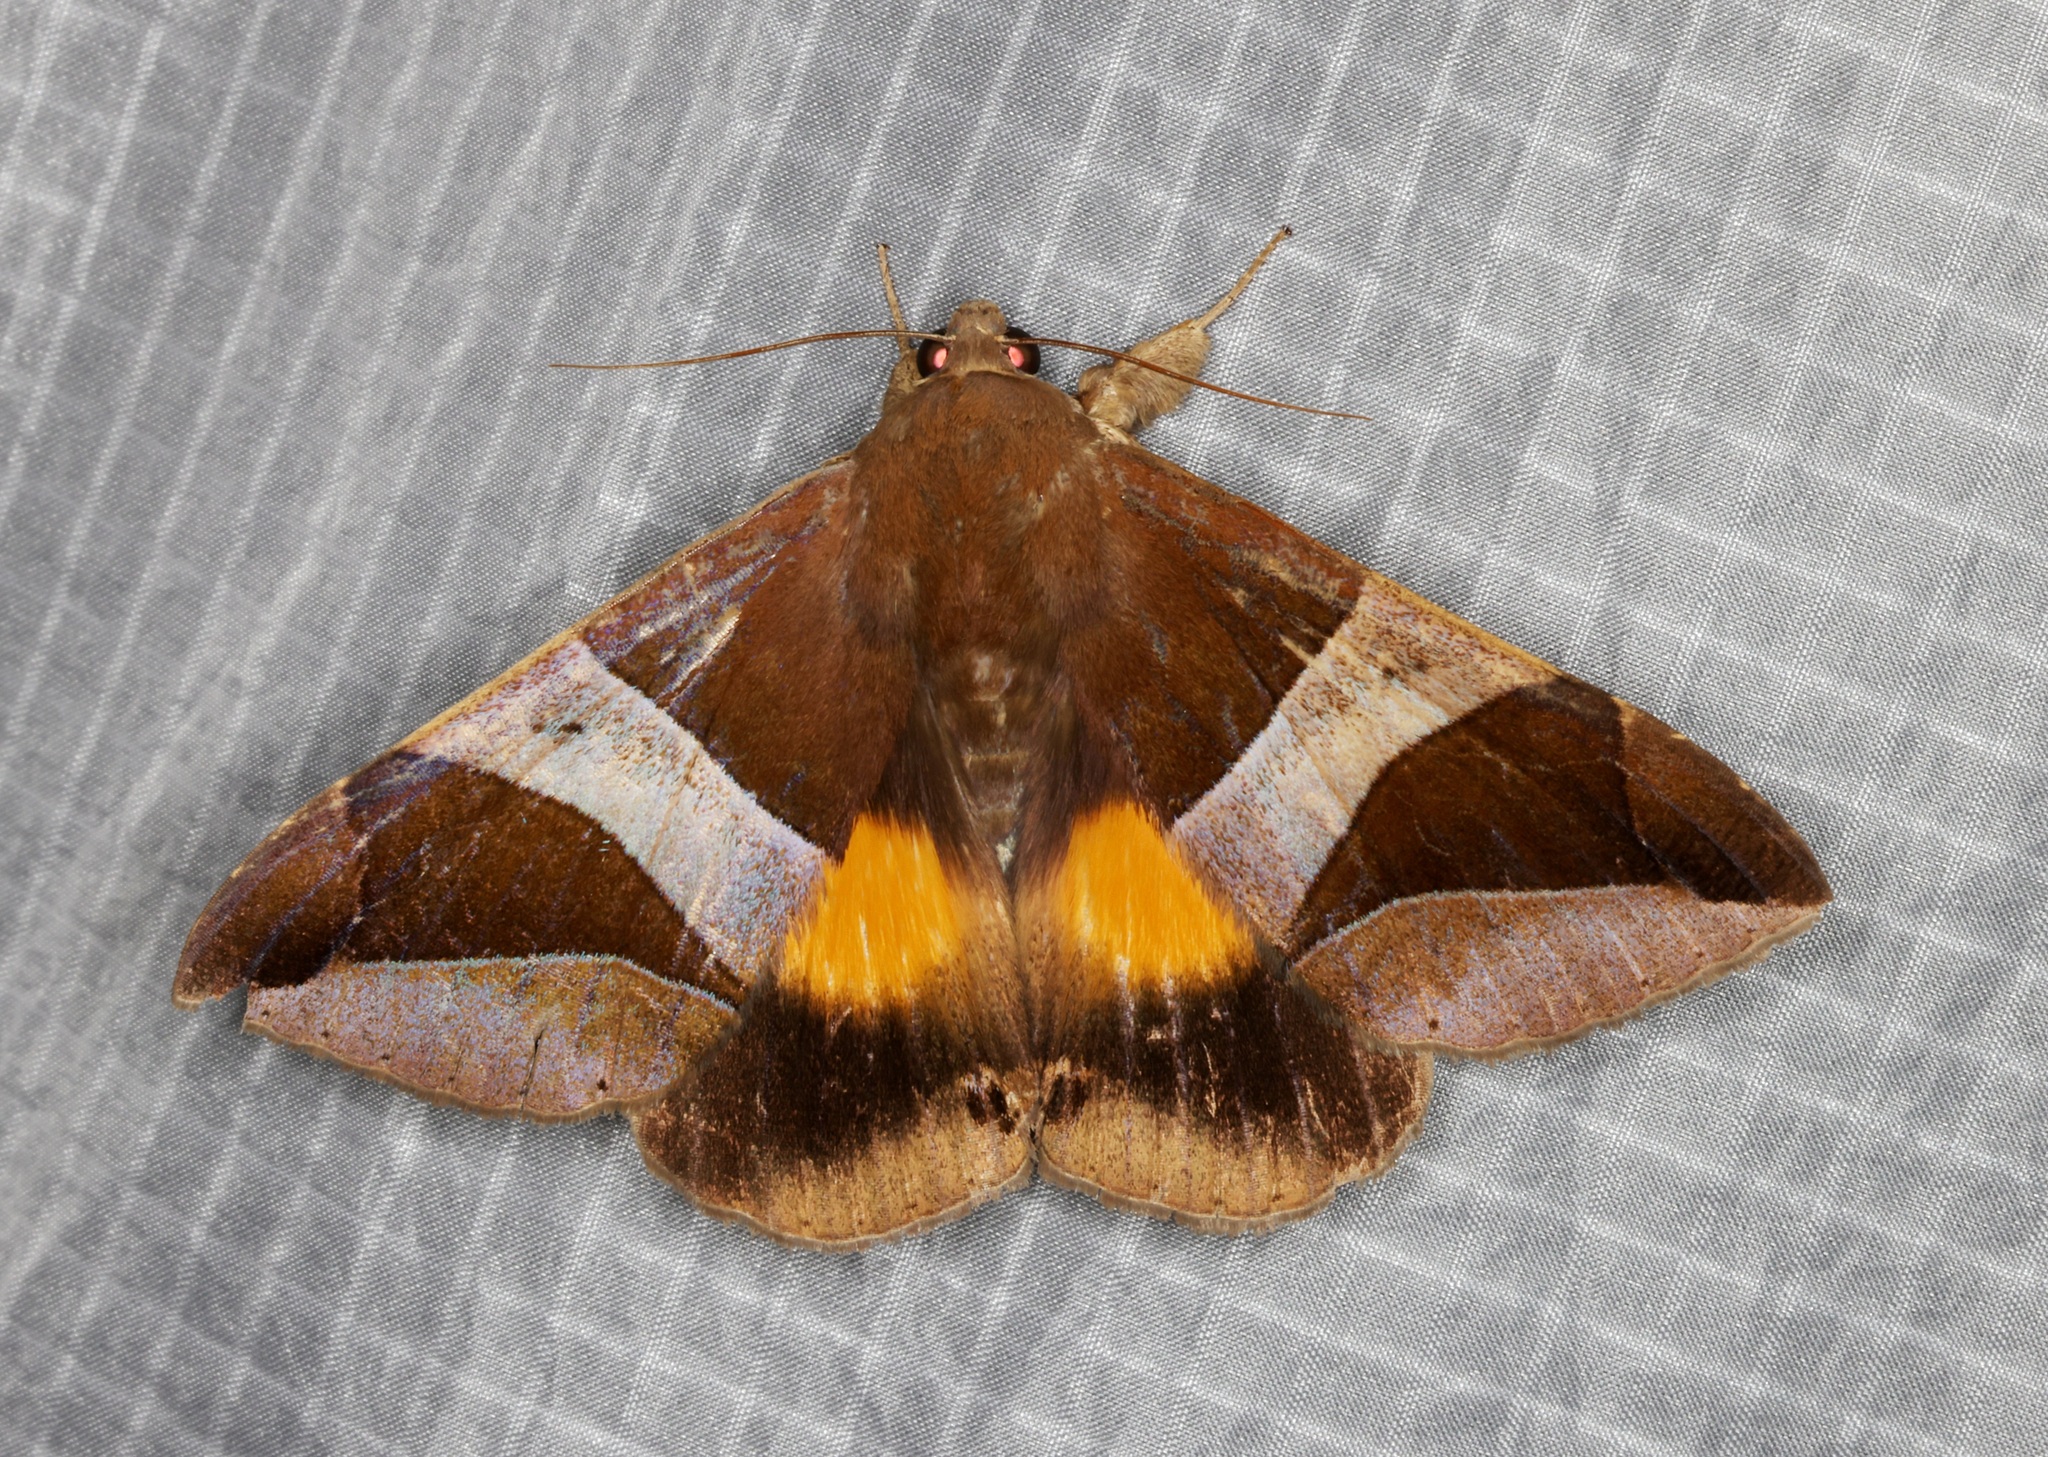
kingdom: Animalia
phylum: Arthropoda
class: Insecta
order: Lepidoptera
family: Erebidae
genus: Bastilla
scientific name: Bastilla fulvotaenia
